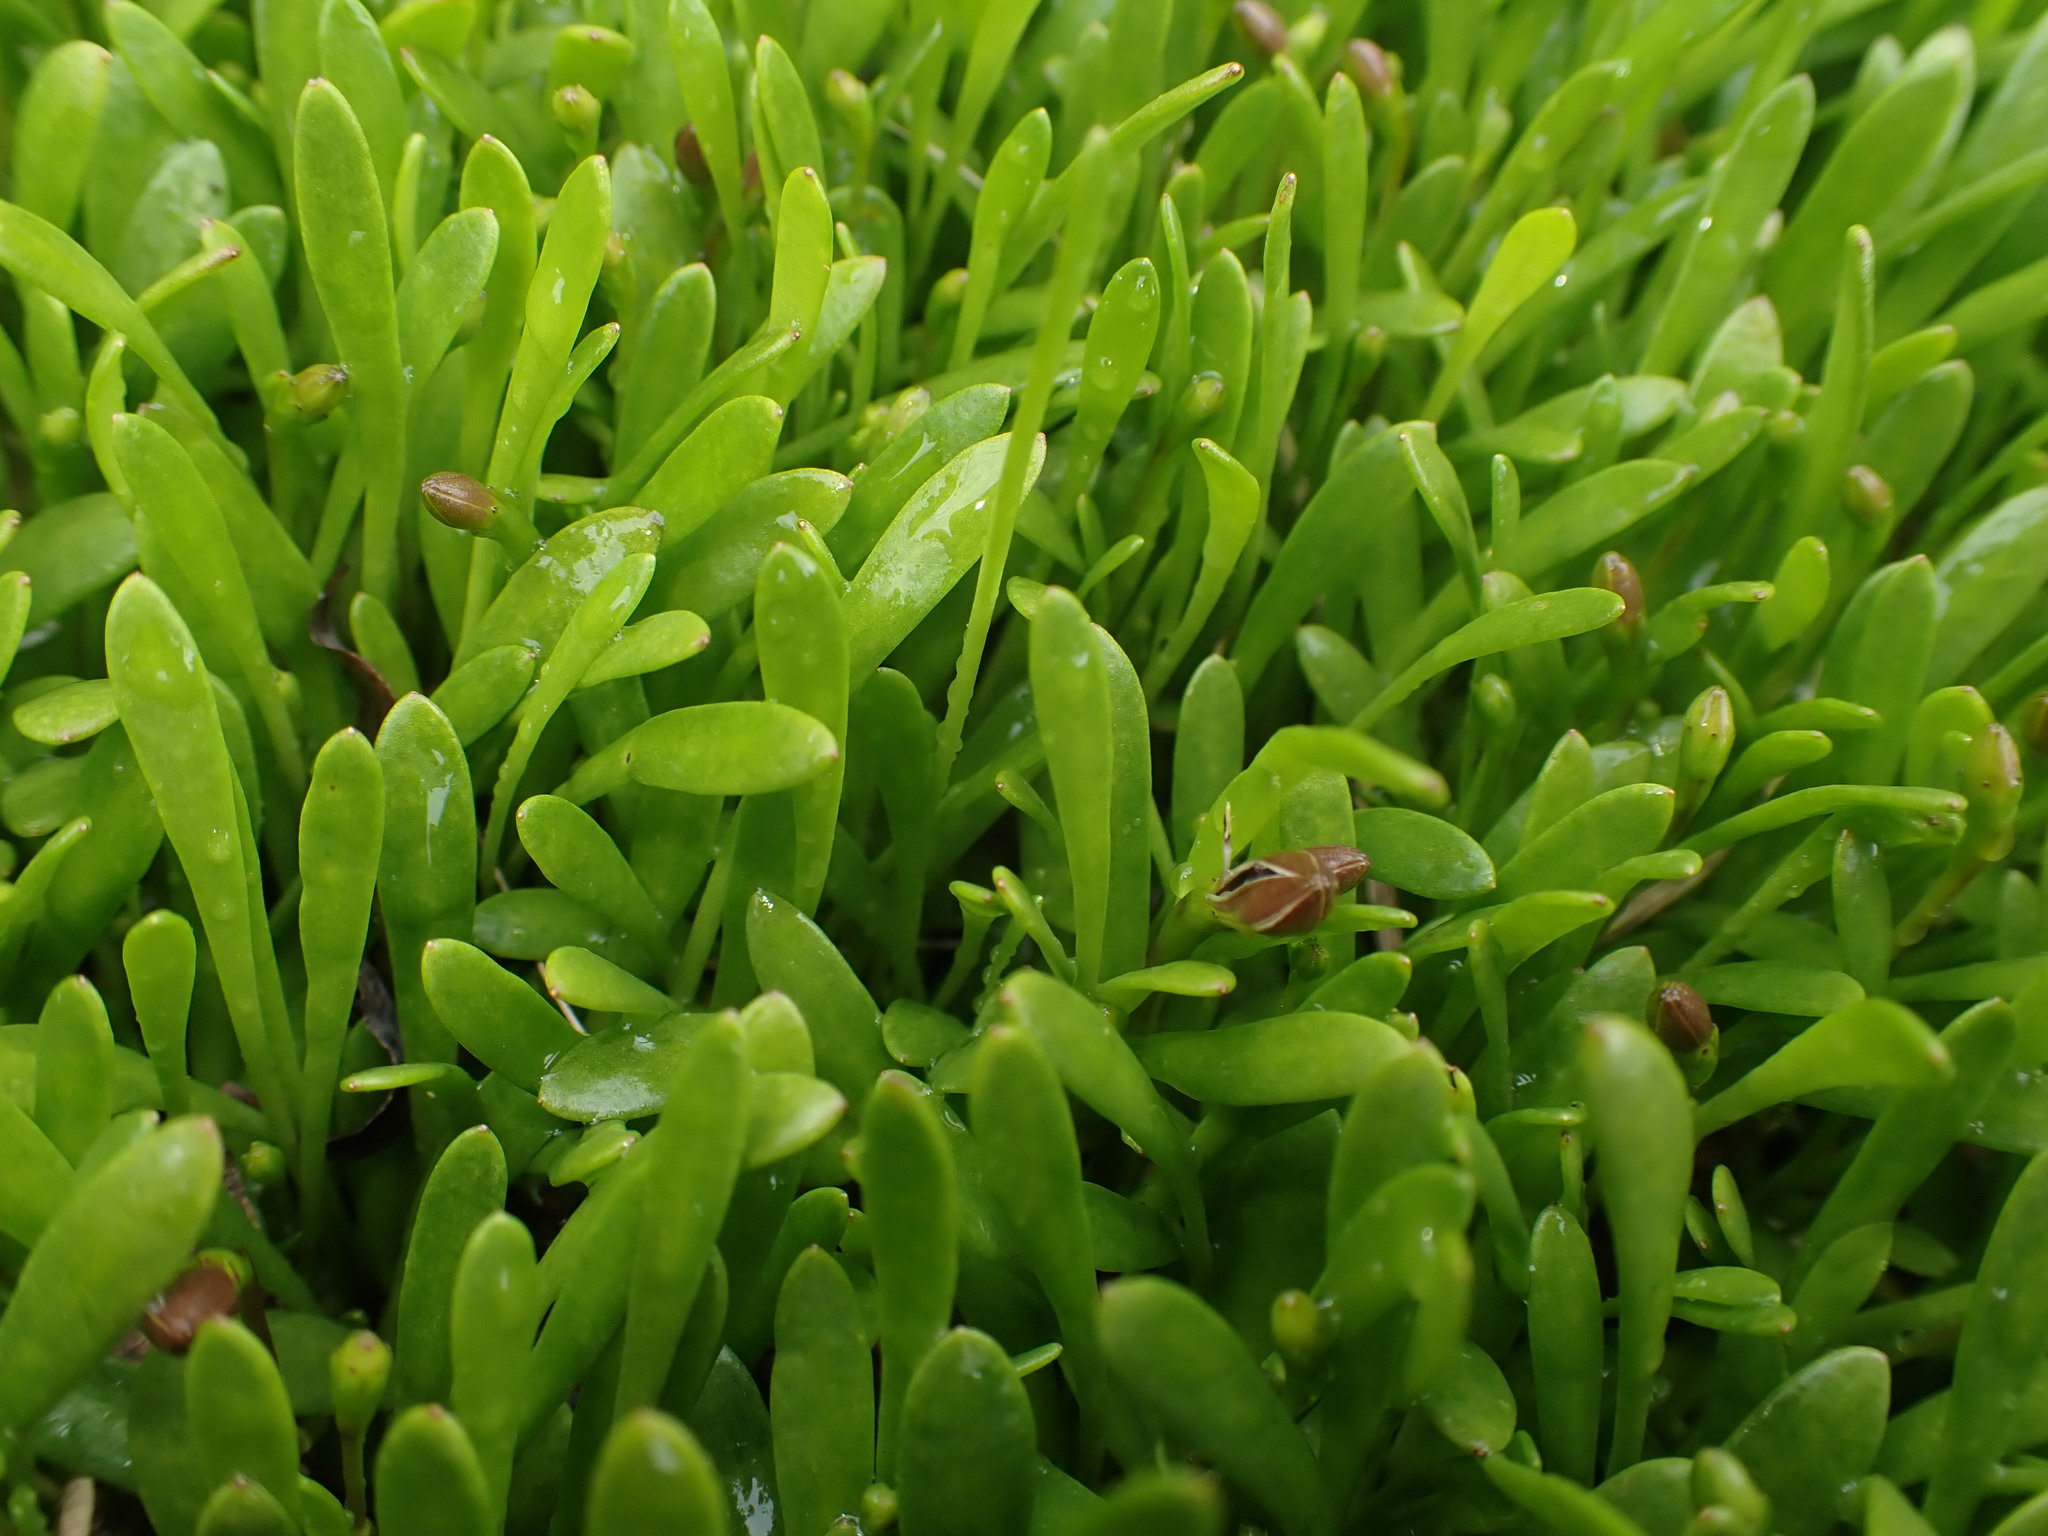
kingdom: Plantae
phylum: Tracheophyta
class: Magnoliopsida
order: Asterales
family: Goodeniaceae
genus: Goodenia
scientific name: Goodenia radicans
